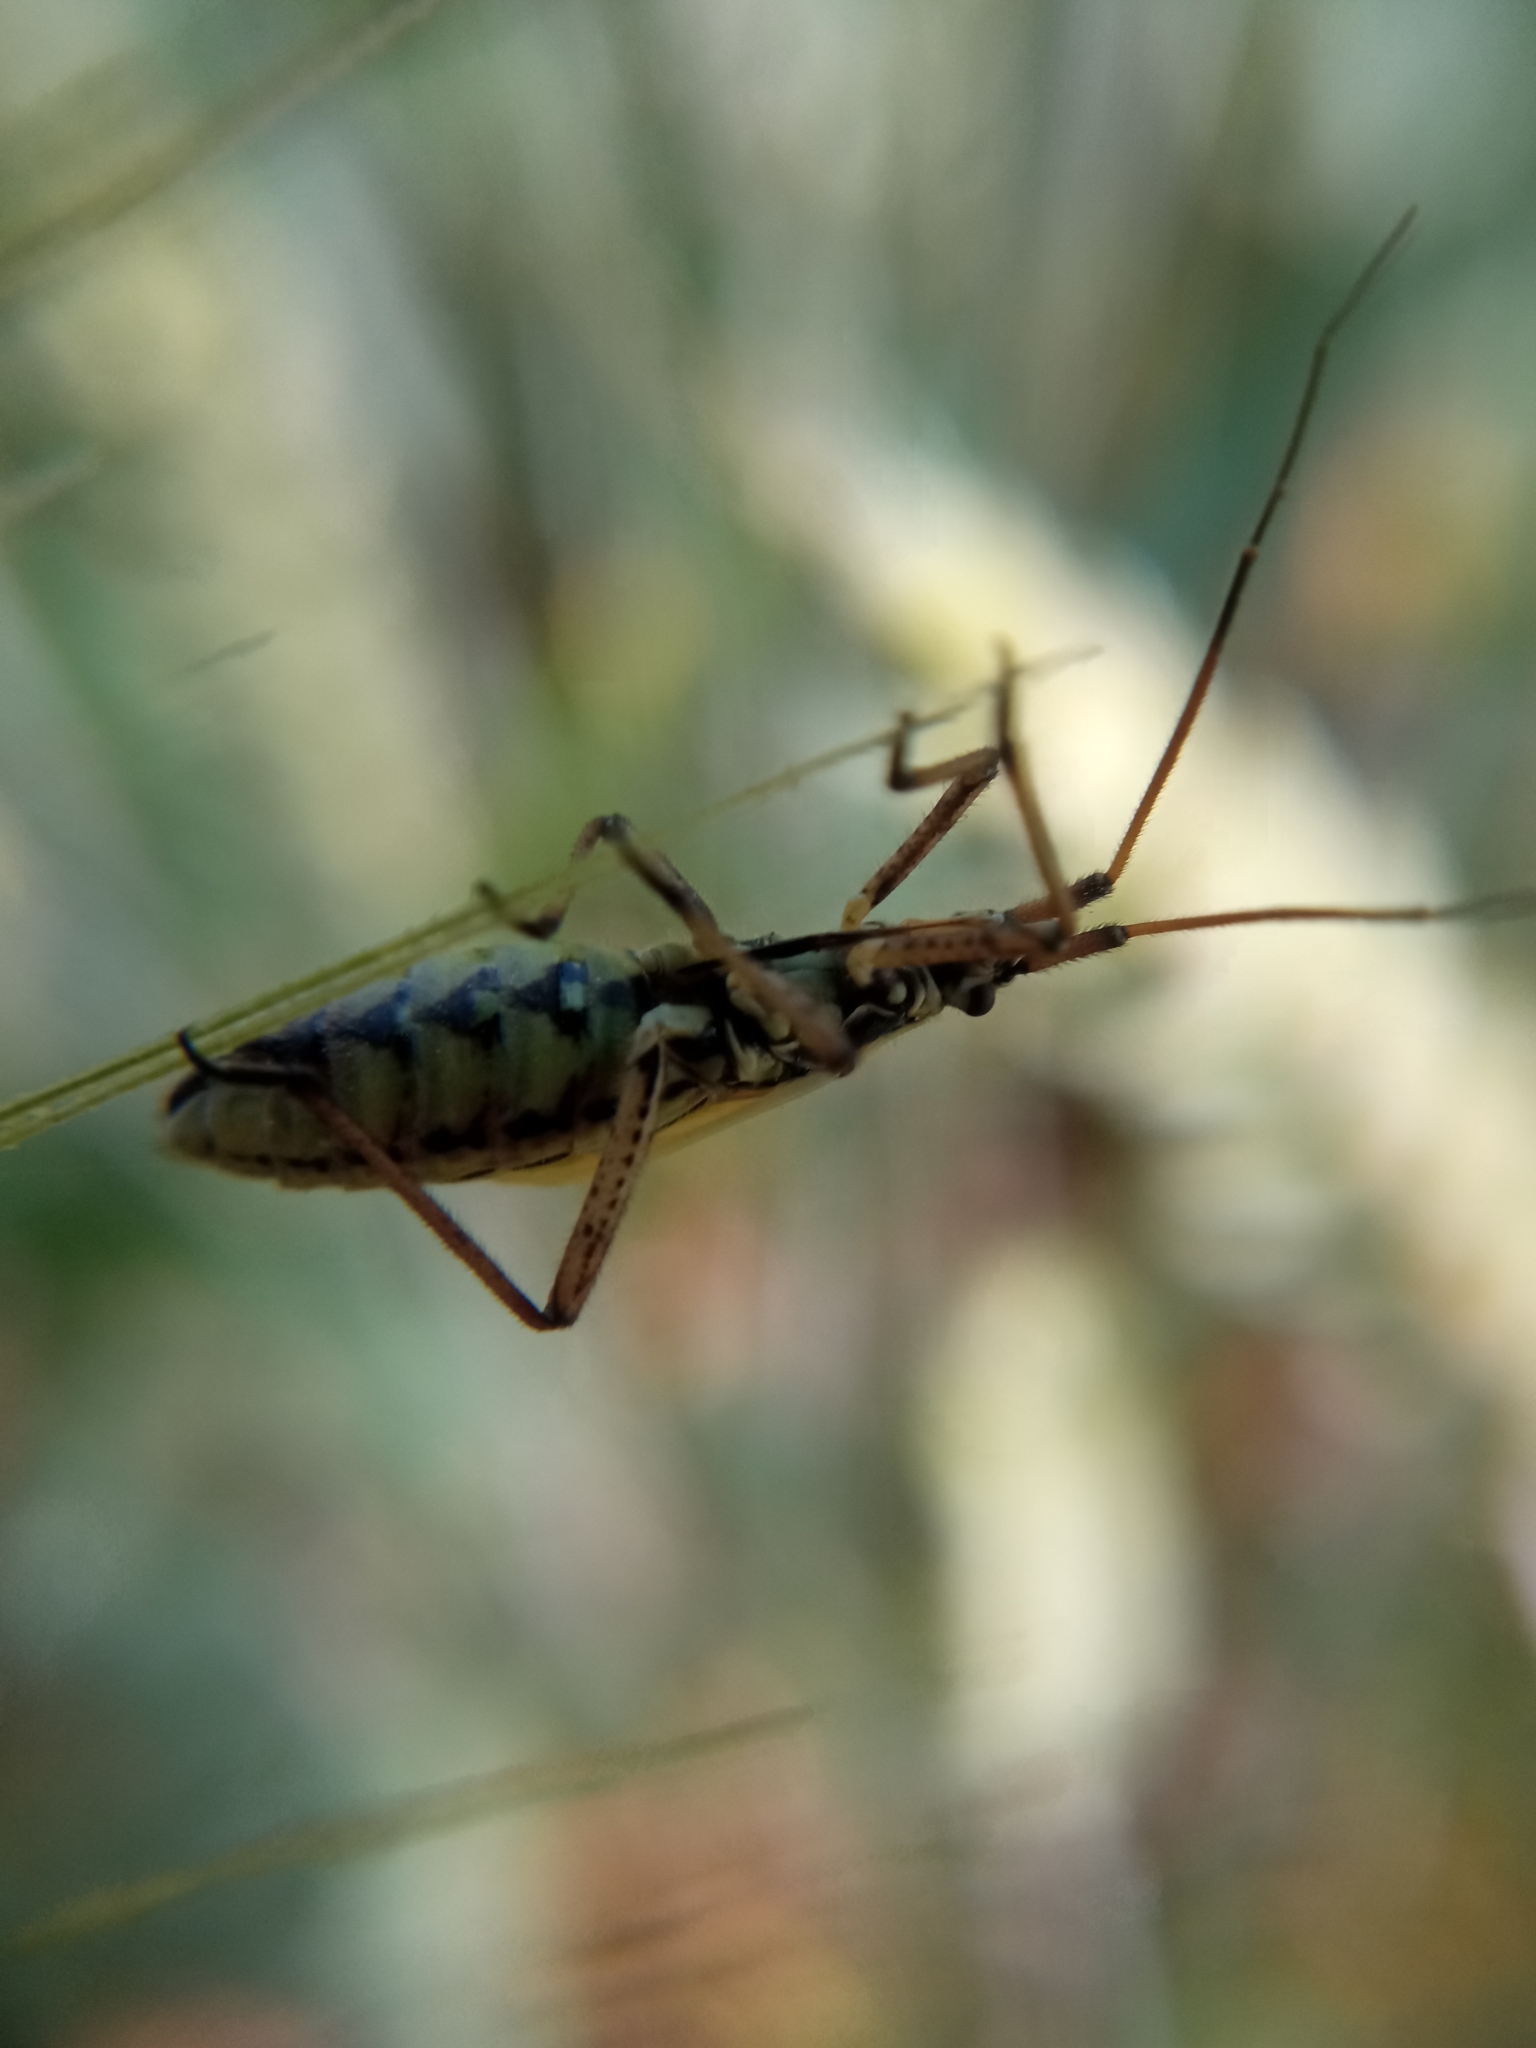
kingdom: Animalia
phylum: Arthropoda
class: Insecta
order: Hemiptera
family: Miridae
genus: Leptopterna
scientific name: Leptopterna dolabrata
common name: Meadow plant bug
